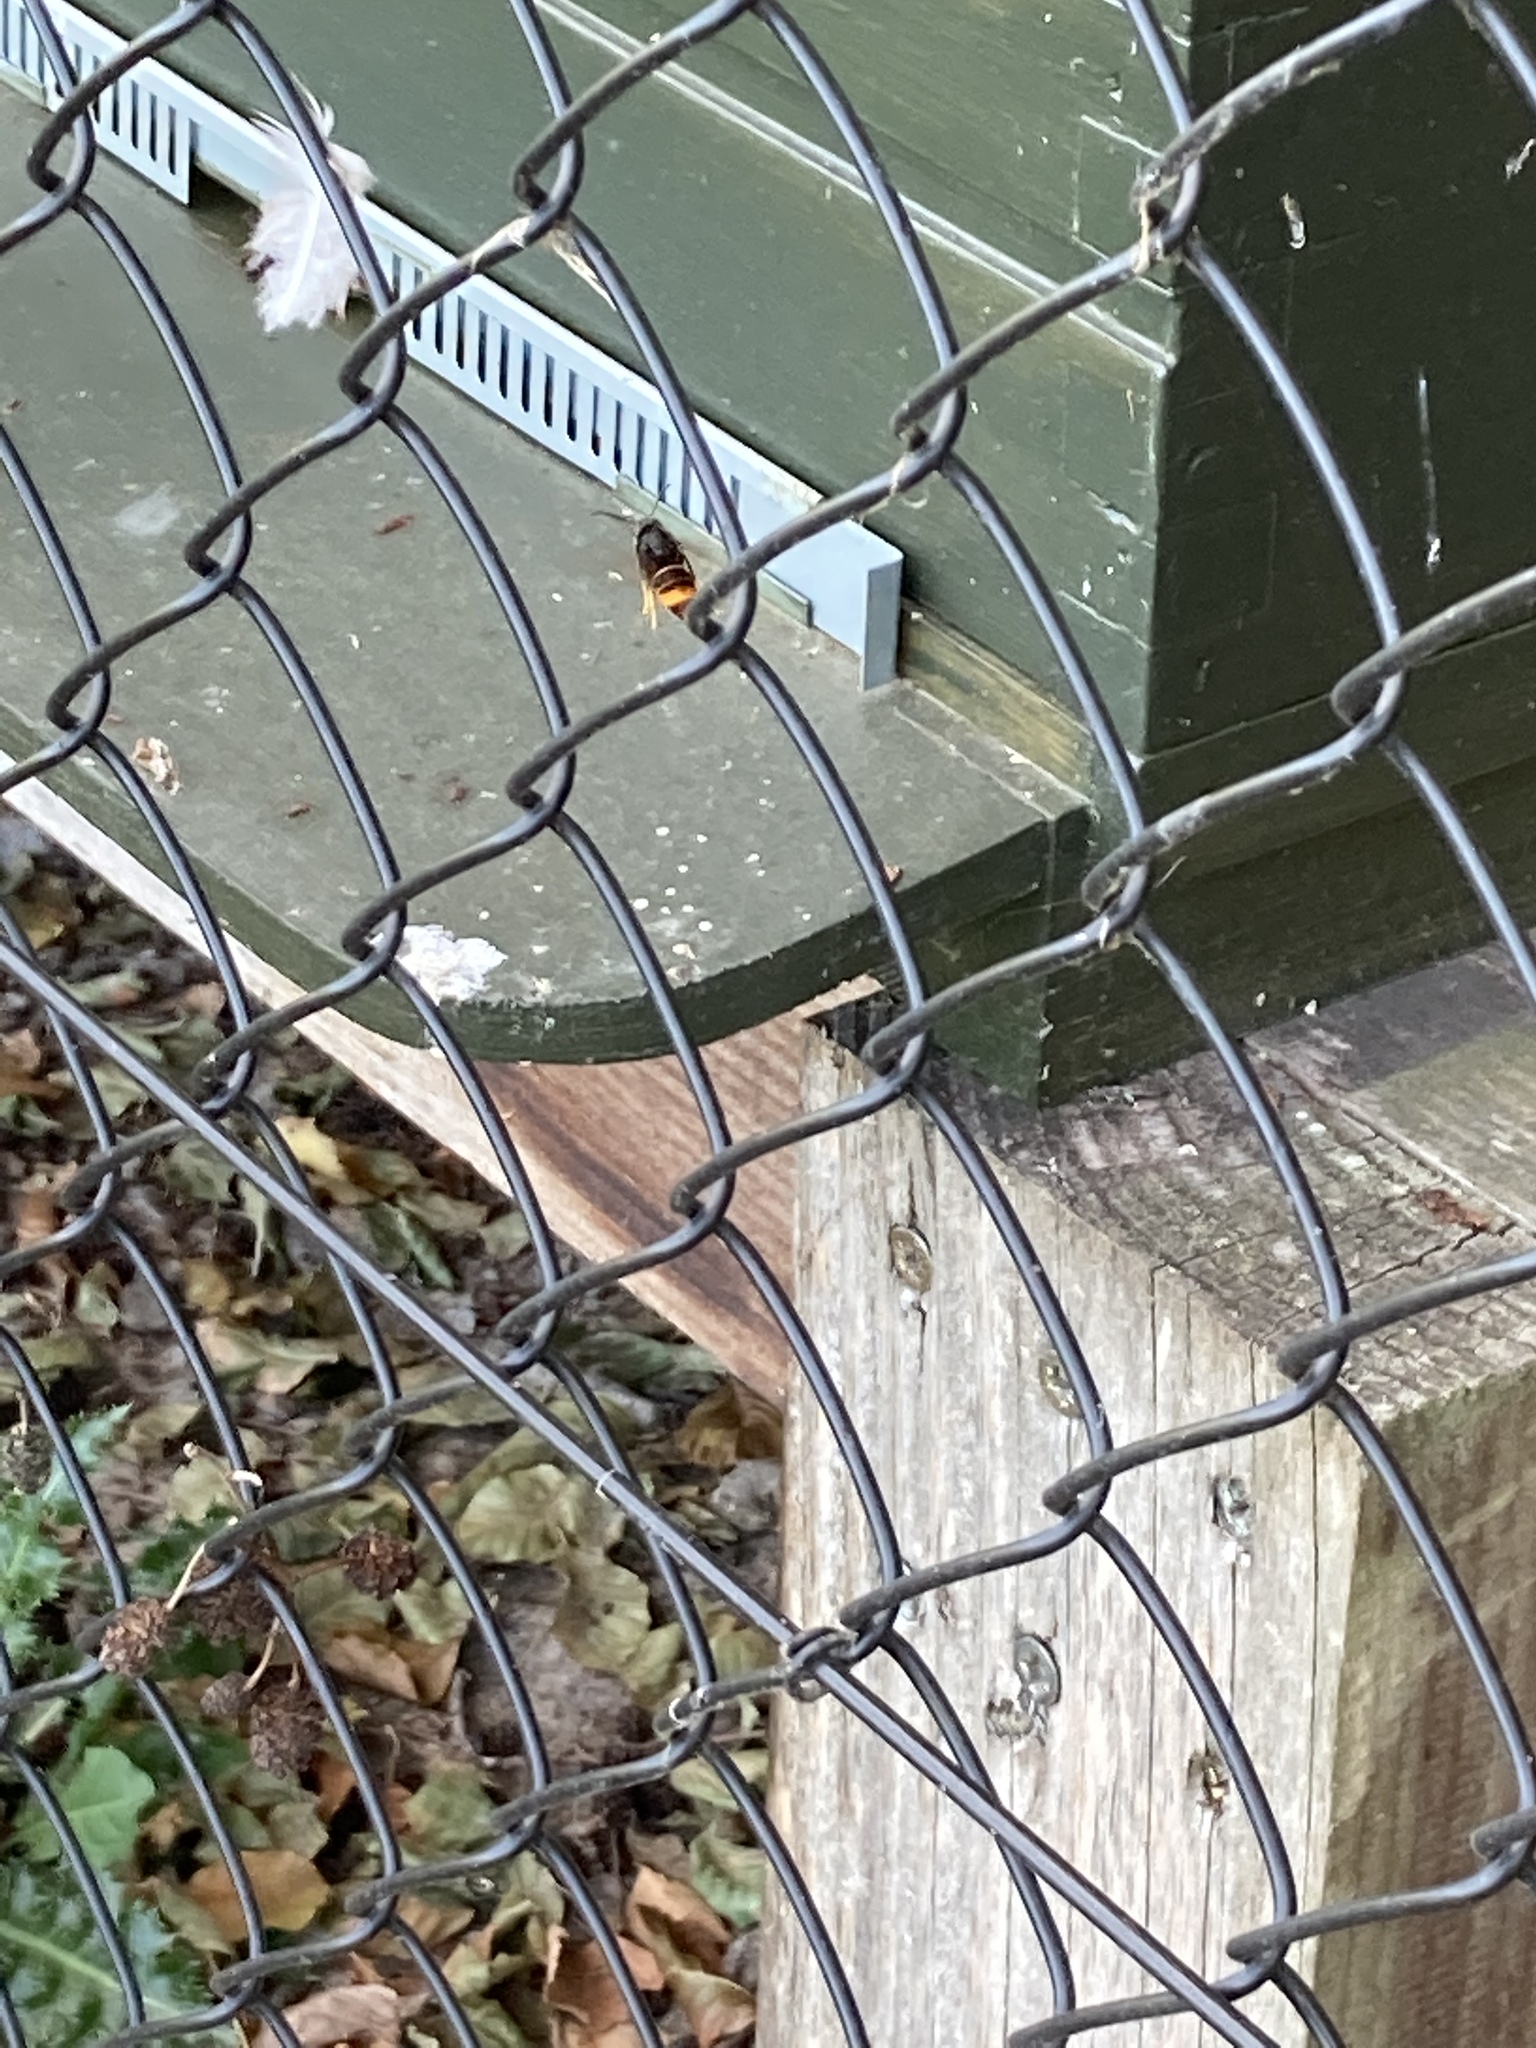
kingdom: Animalia
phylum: Arthropoda
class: Insecta
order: Hymenoptera
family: Vespidae
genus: Vespa
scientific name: Vespa velutina
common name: Asian hornet
